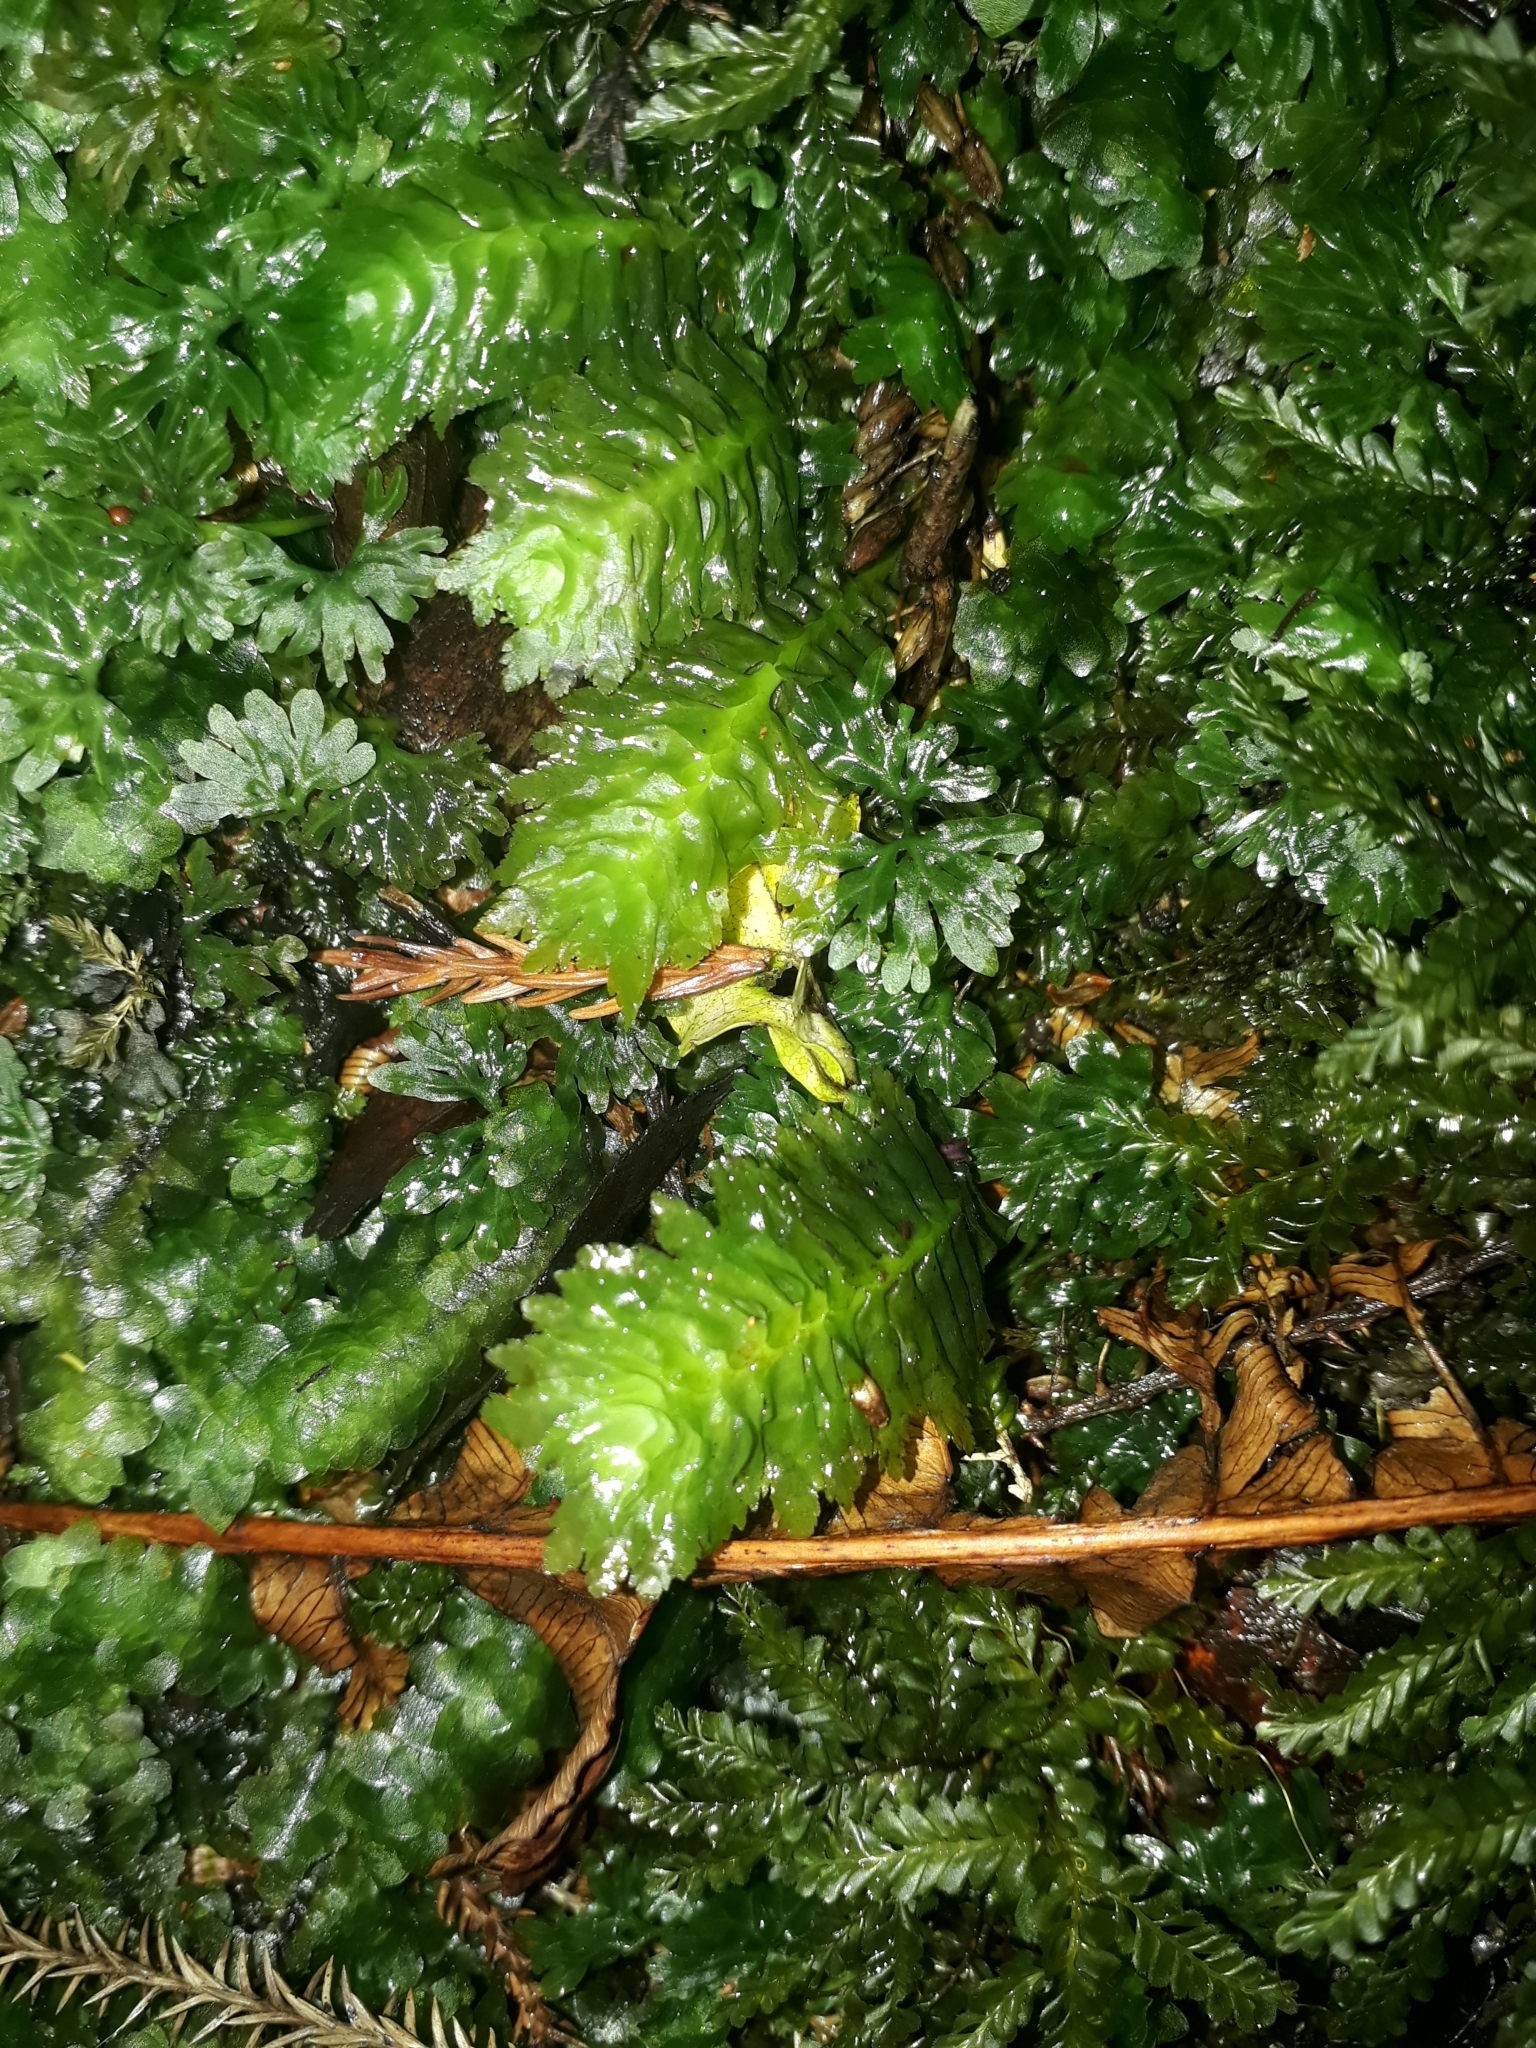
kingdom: Plantae
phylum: Marchantiophyta
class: Jungermanniopsida
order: Jungermanniales
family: Schistochilaceae
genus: Schistochila
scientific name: Schistochila appendiculata
